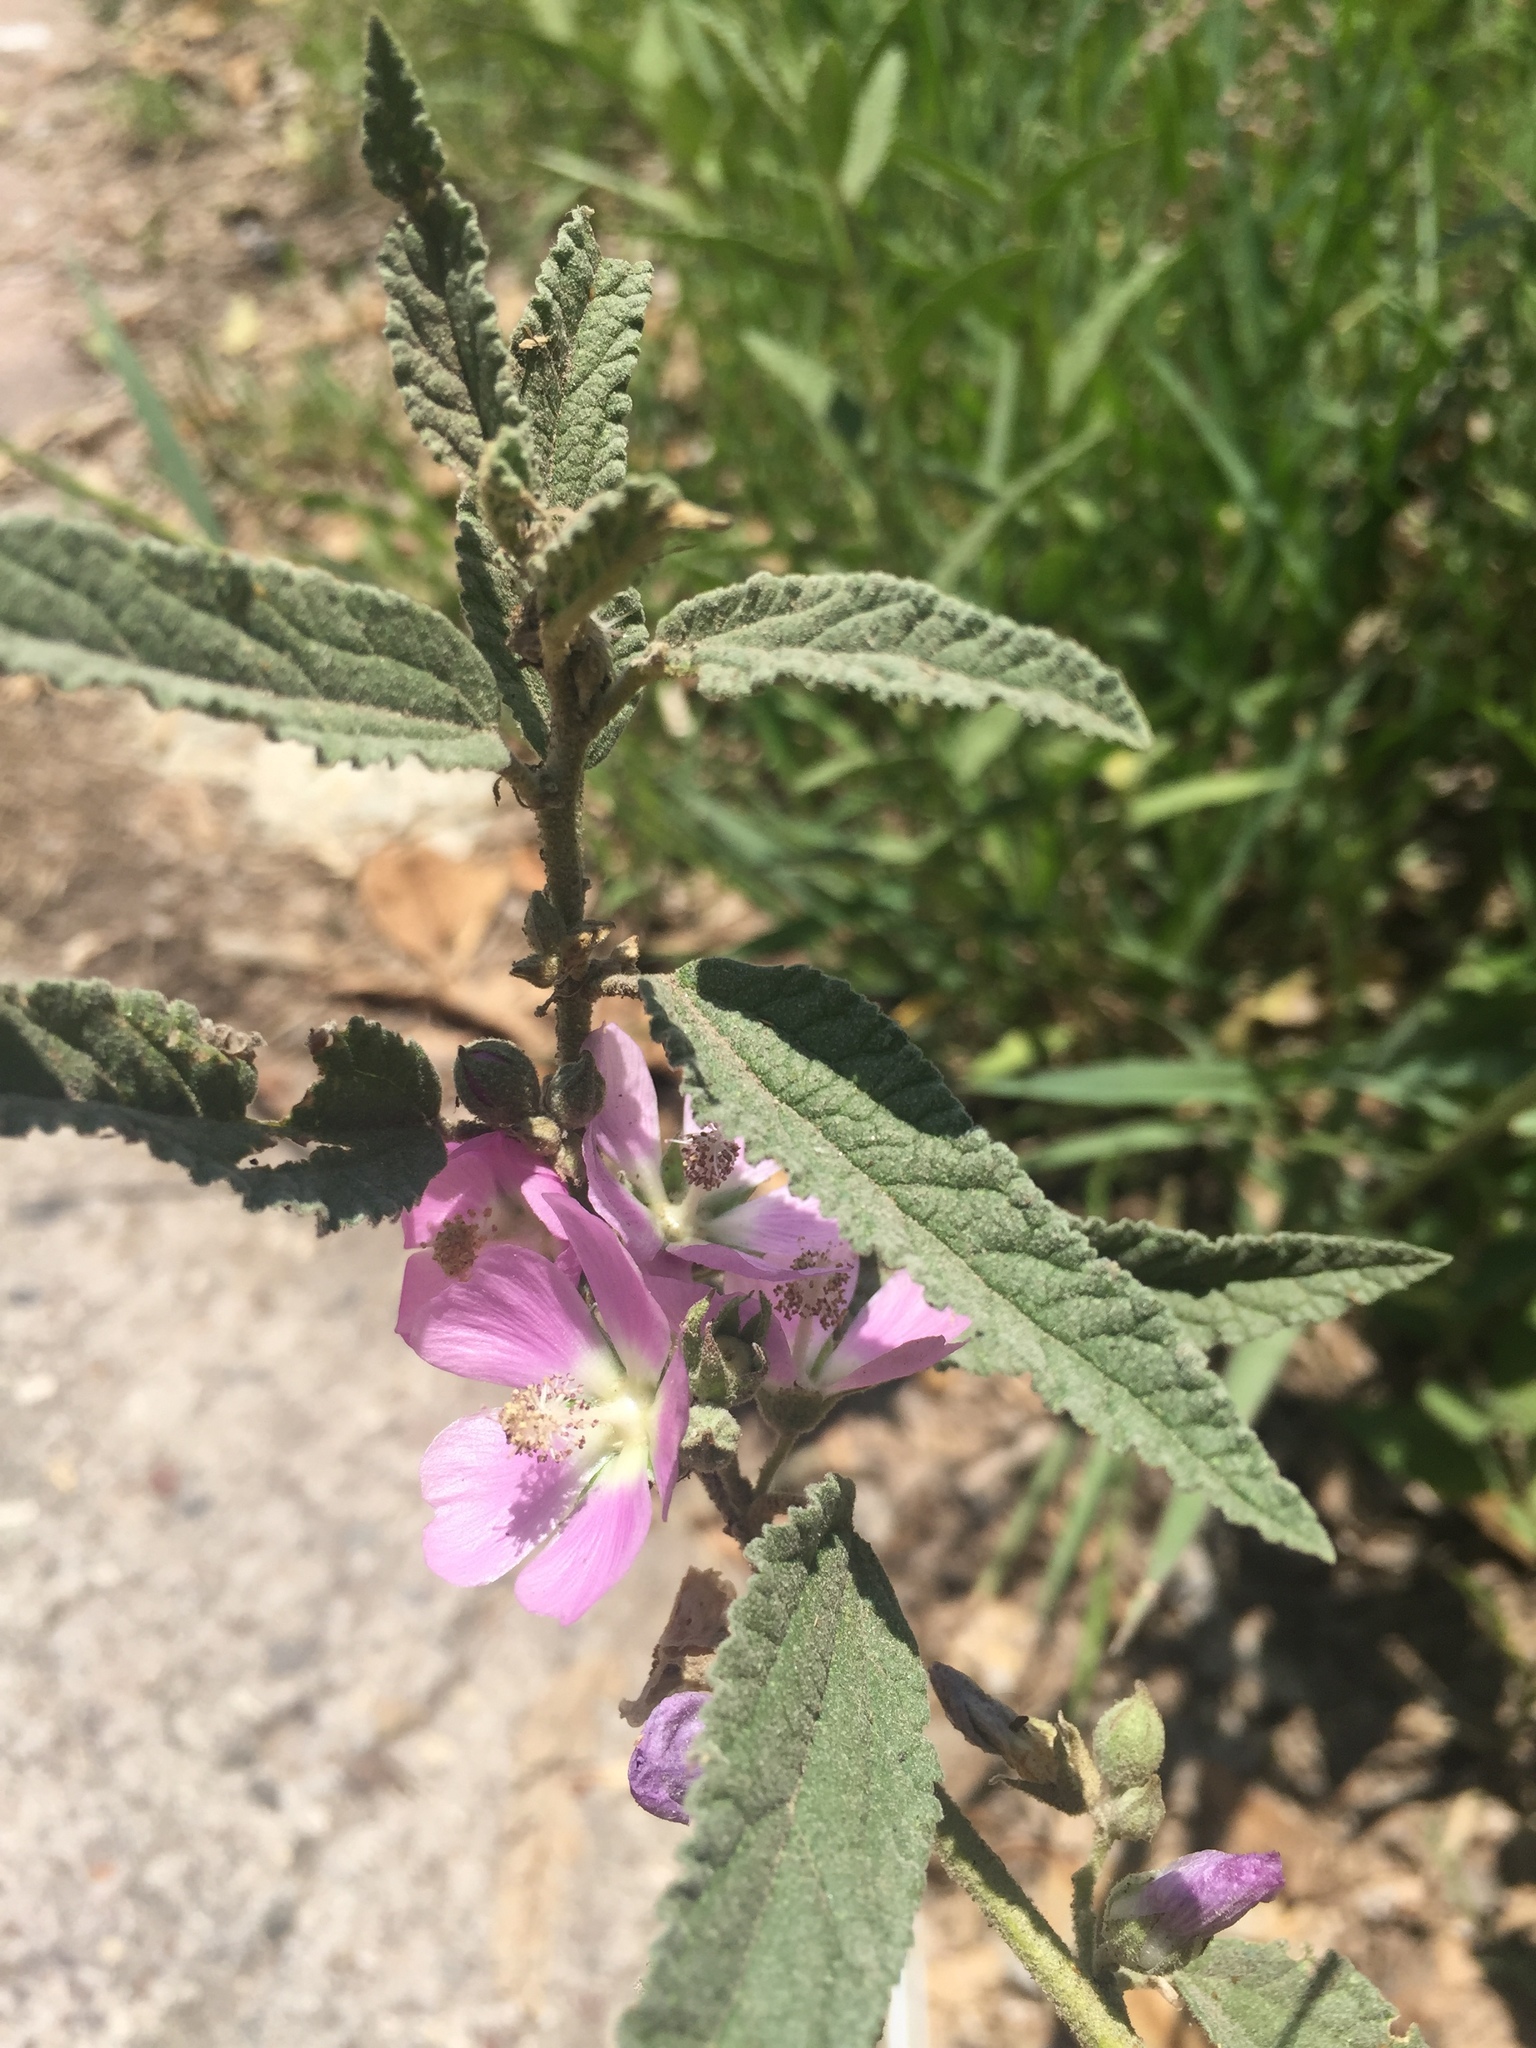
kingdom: Plantae
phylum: Tracheophyta
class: Magnoliopsida
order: Malvales
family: Malvaceae
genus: Sphaeralcea
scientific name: Sphaeralcea angustifolia
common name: Copper globe-mallow
